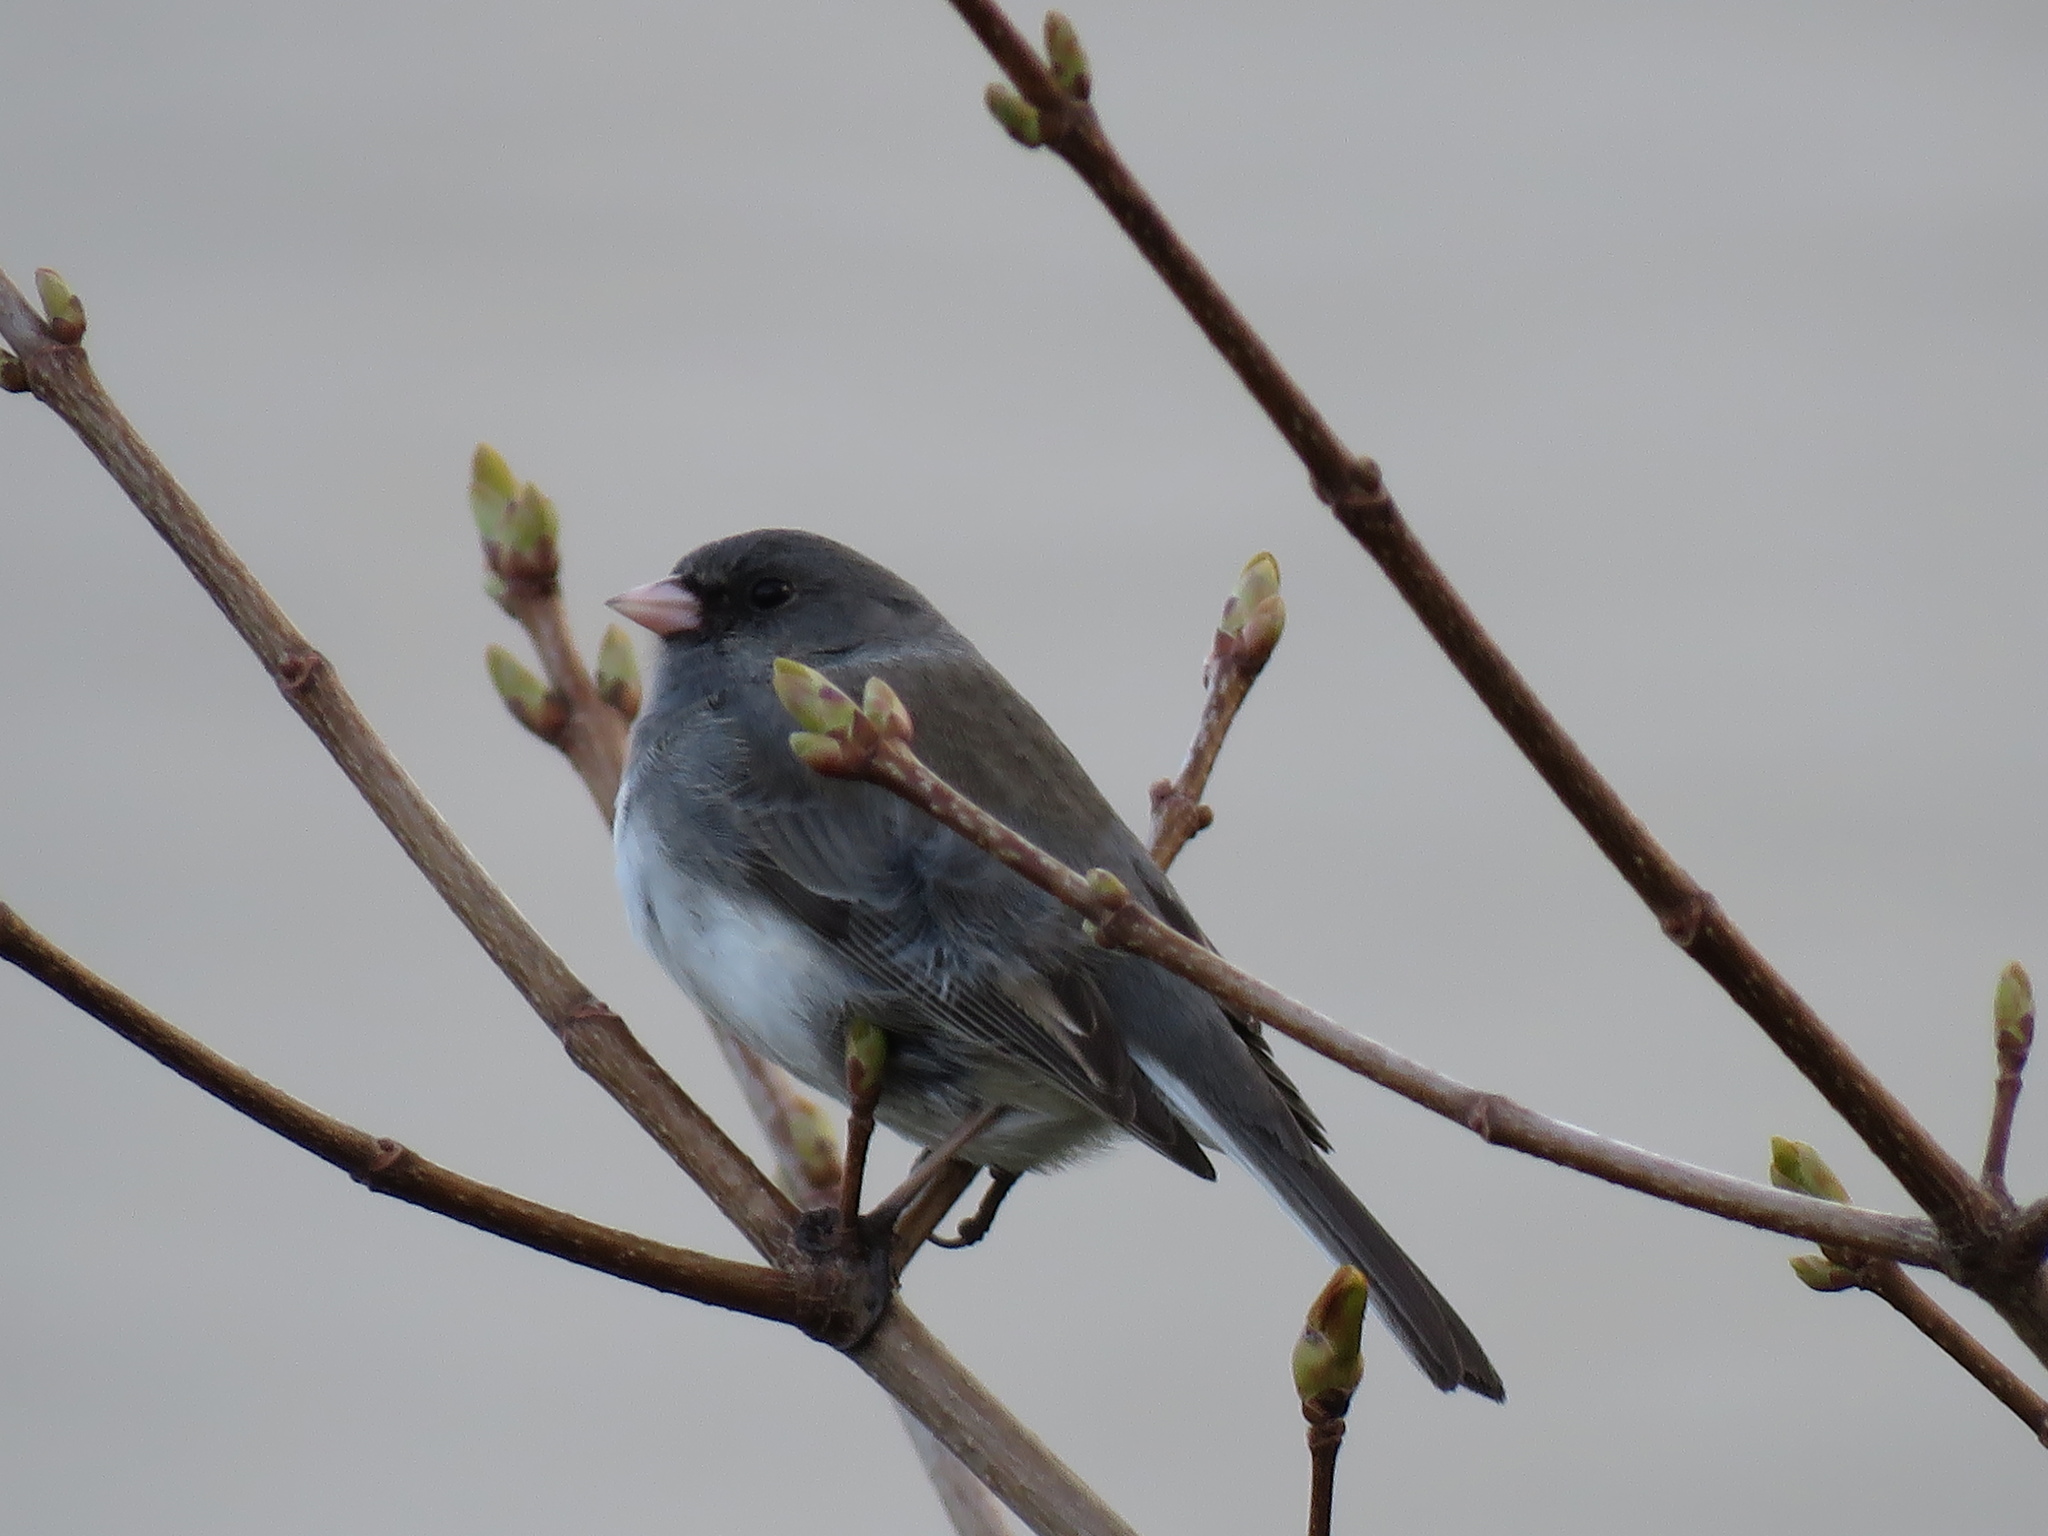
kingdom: Animalia
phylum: Chordata
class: Aves
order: Passeriformes
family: Passerellidae
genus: Junco
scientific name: Junco hyemalis
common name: Dark-eyed junco
